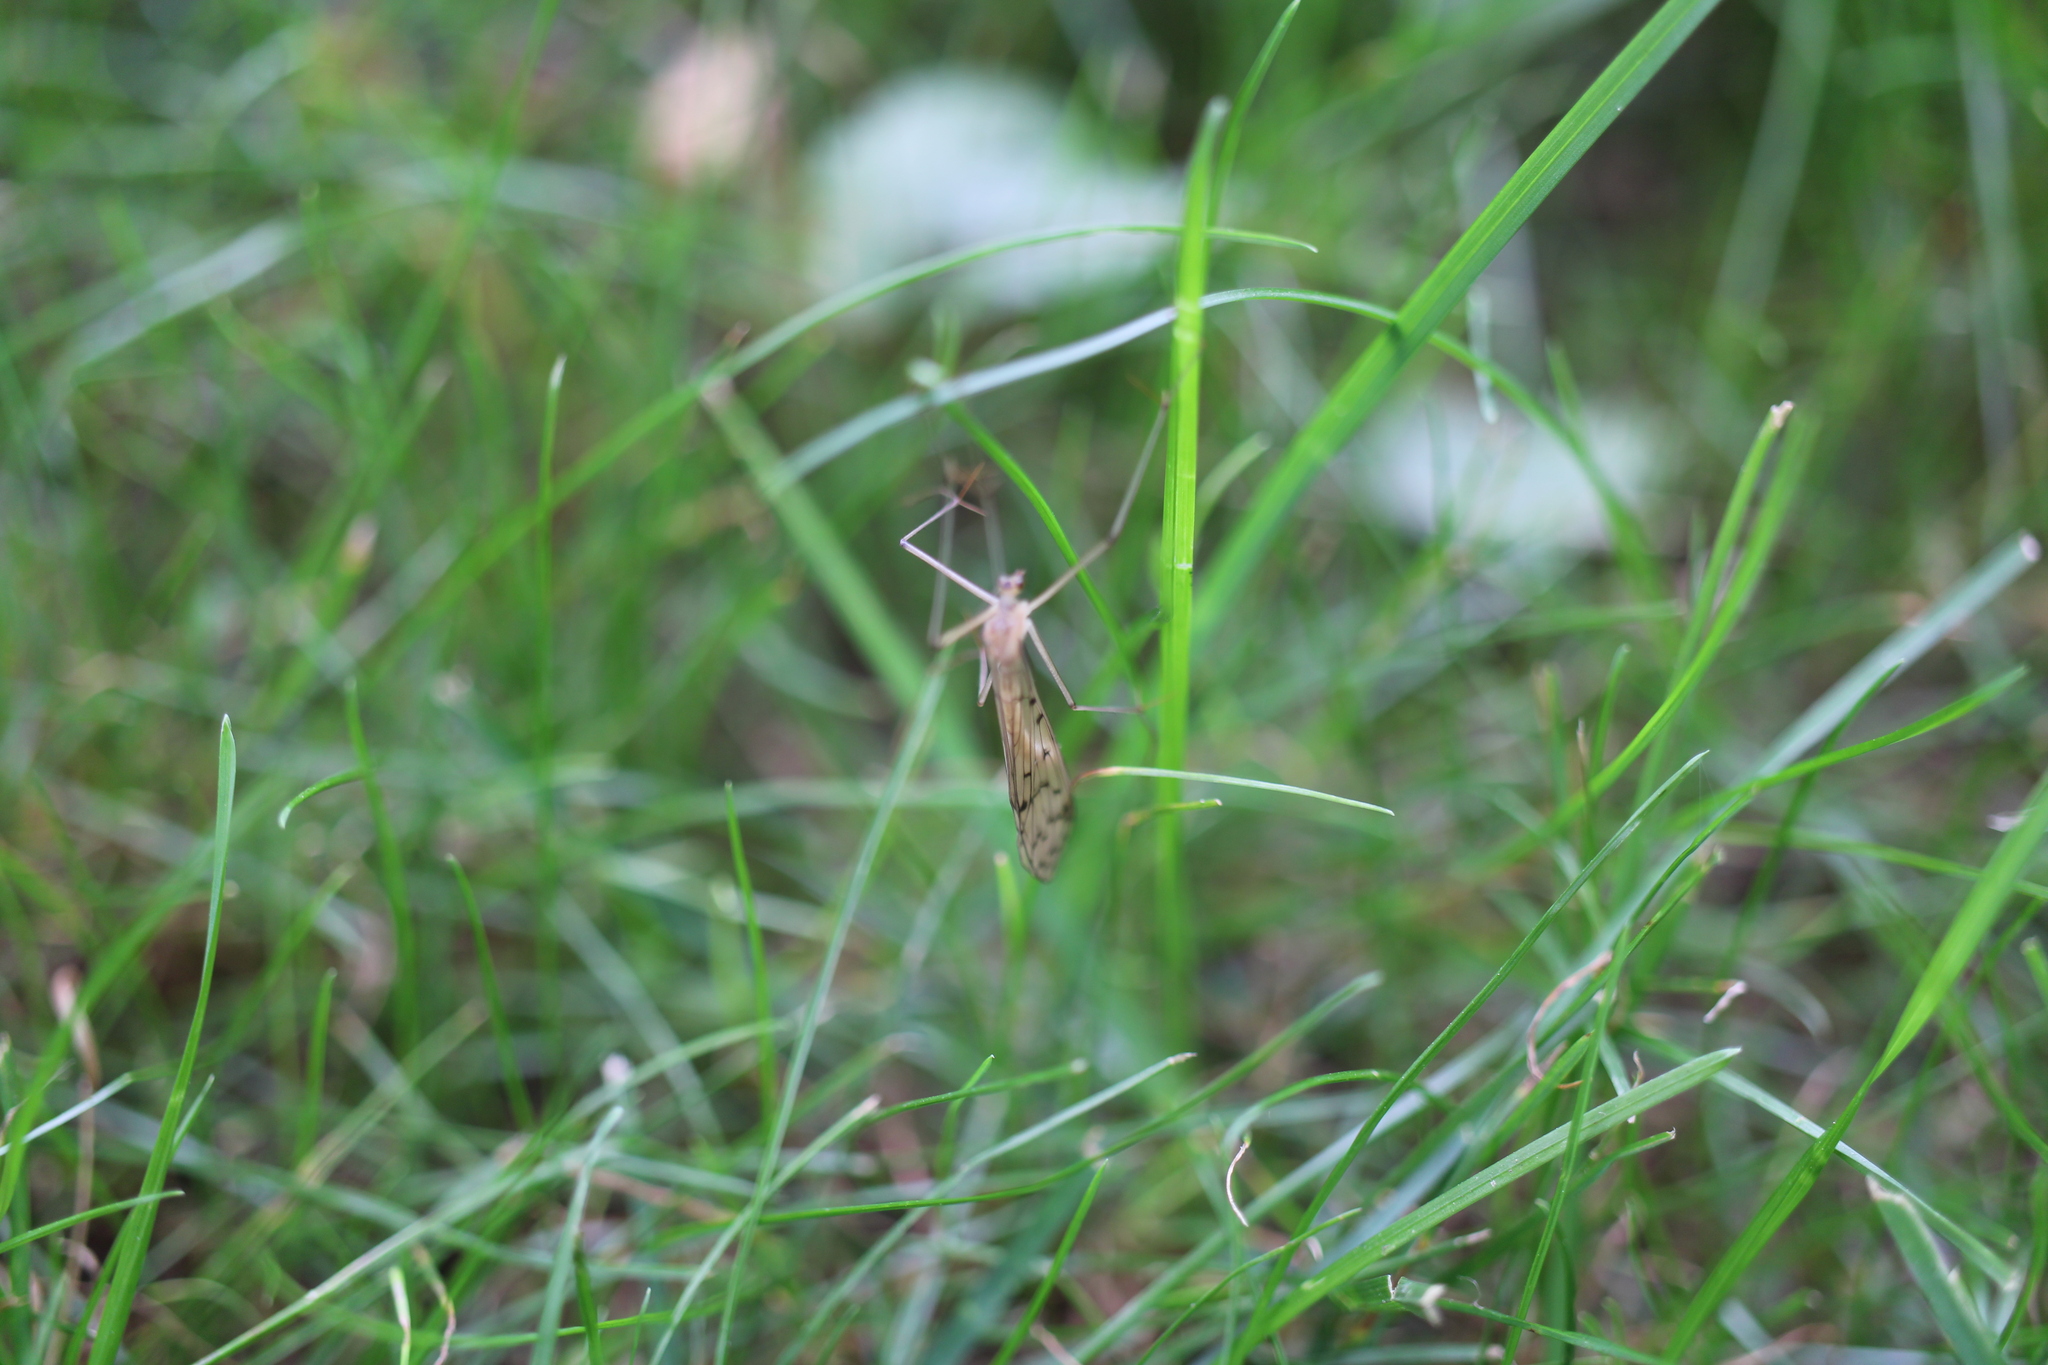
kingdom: Animalia
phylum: Arthropoda
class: Insecta
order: Mecoptera
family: Bittacidae
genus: Bittacus
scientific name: Bittacus strigosus
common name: Thin hangingfly
